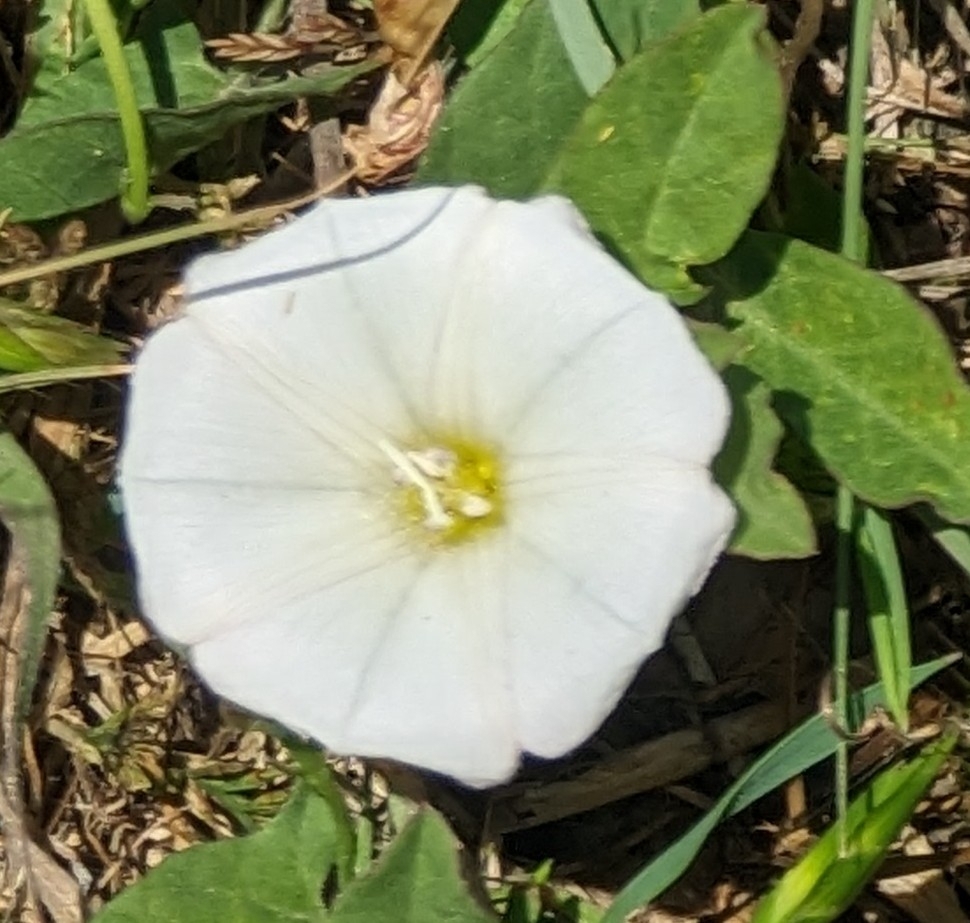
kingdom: Plantae
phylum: Tracheophyta
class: Magnoliopsida
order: Solanales
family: Convolvulaceae
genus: Convolvulus
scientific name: Convolvulus arvensis
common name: Field bindweed
